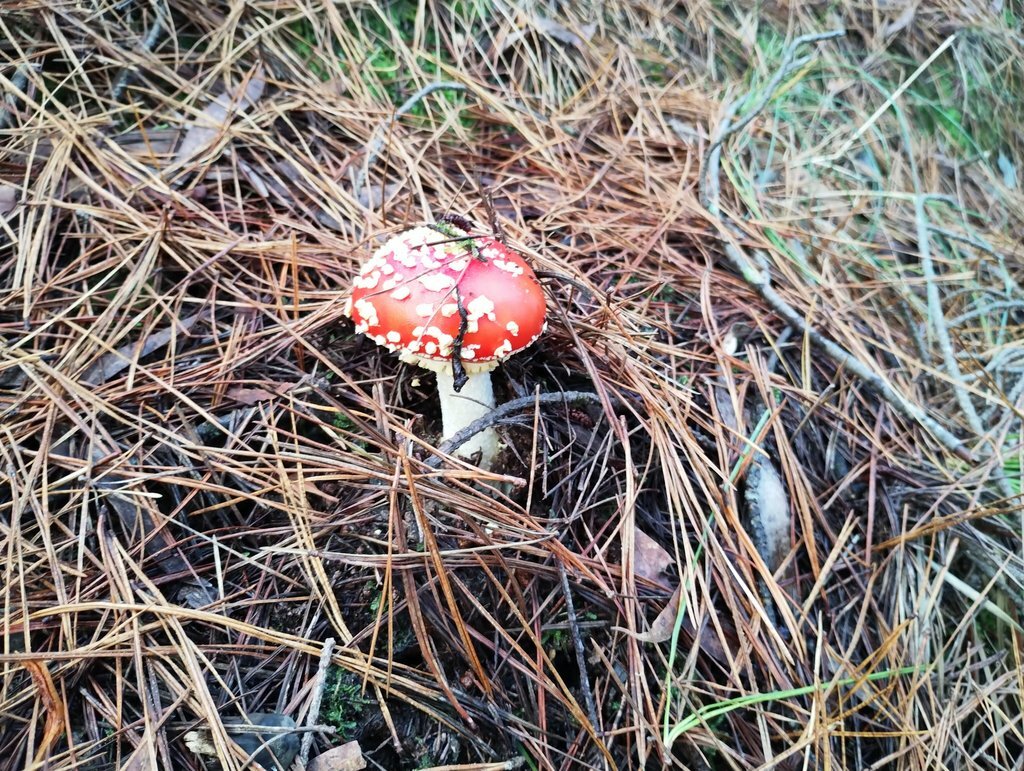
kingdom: Fungi
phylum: Basidiomycota
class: Agaricomycetes
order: Agaricales
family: Amanitaceae
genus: Amanita
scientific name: Amanita muscaria
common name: Fly agaric
